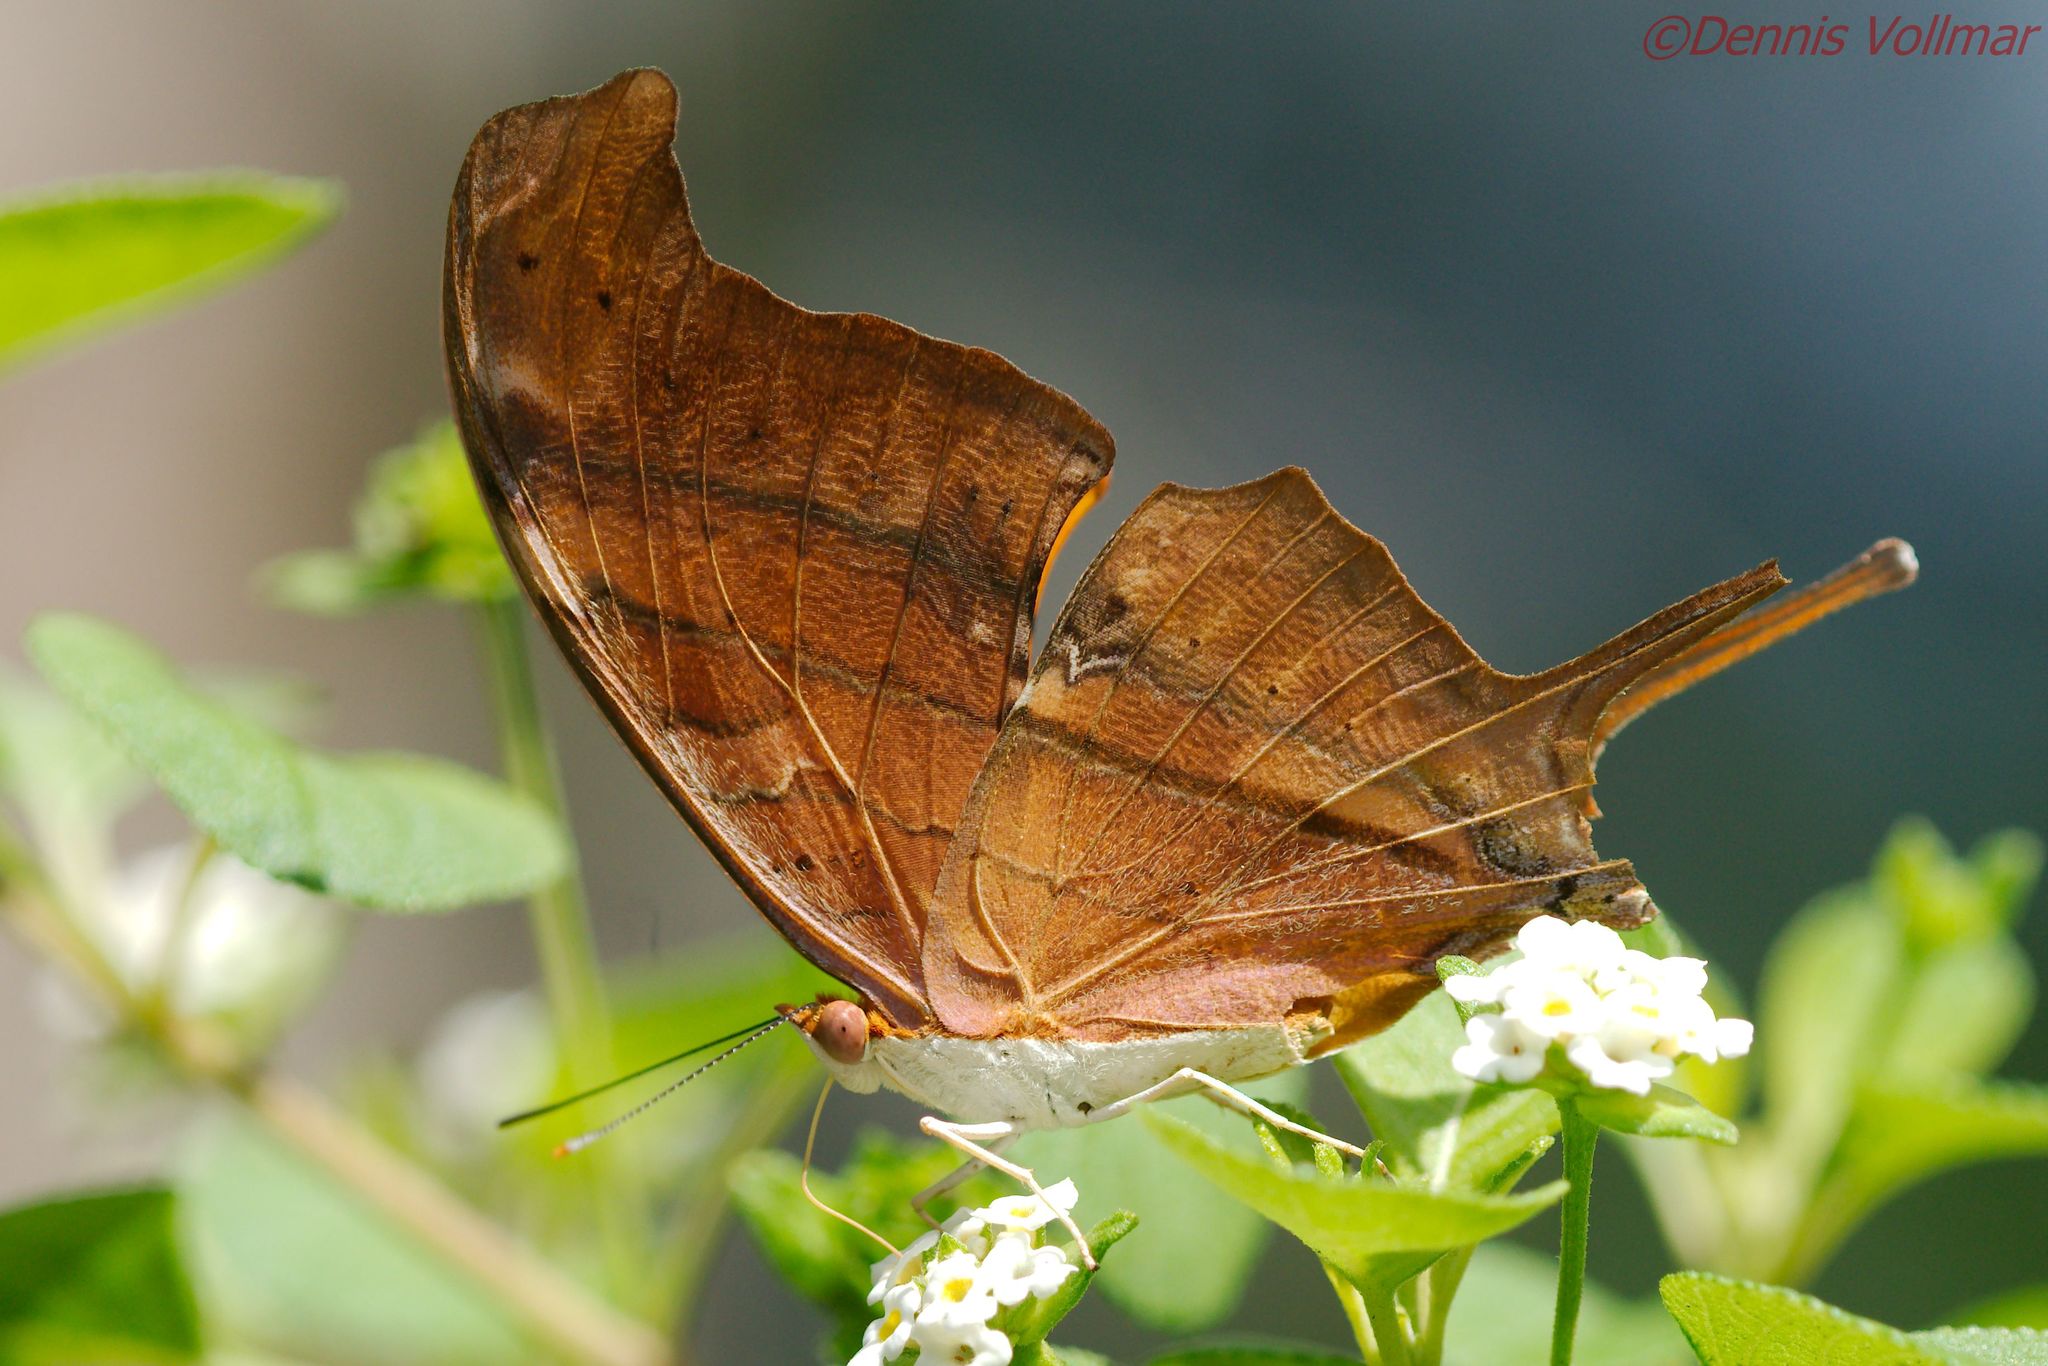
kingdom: Animalia
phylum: Arthropoda
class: Insecta
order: Lepidoptera
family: Nymphalidae
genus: Marpesia
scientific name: Marpesia petreus
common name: Red dagger wing
